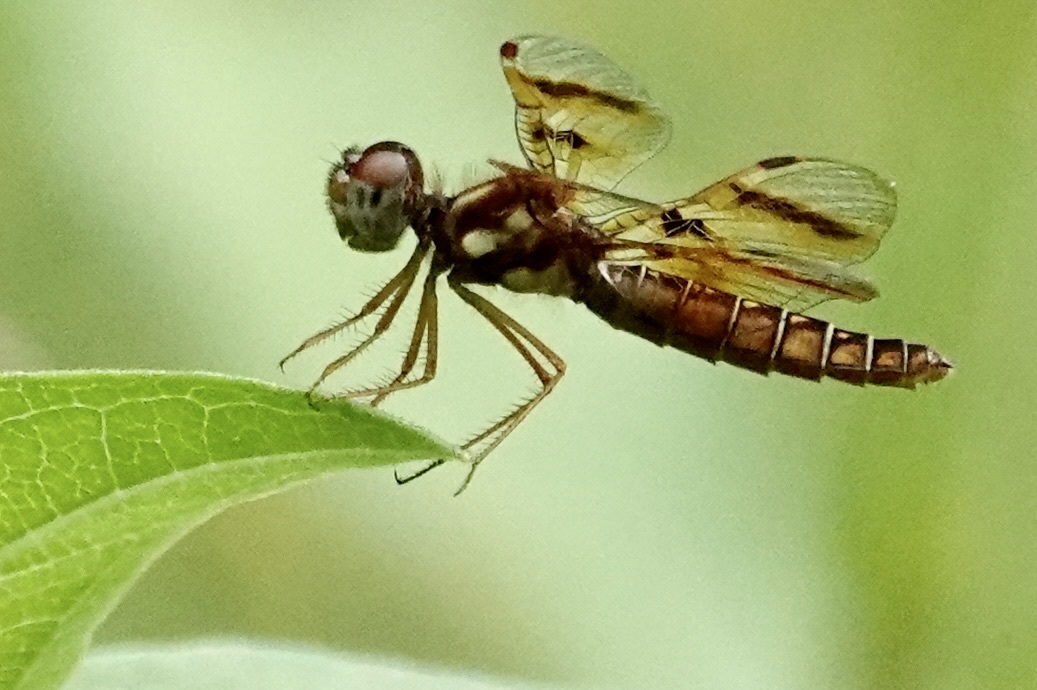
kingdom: Animalia
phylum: Arthropoda
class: Insecta
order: Odonata
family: Libellulidae
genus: Perithemis
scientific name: Perithemis tenera
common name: Eastern amberwing
